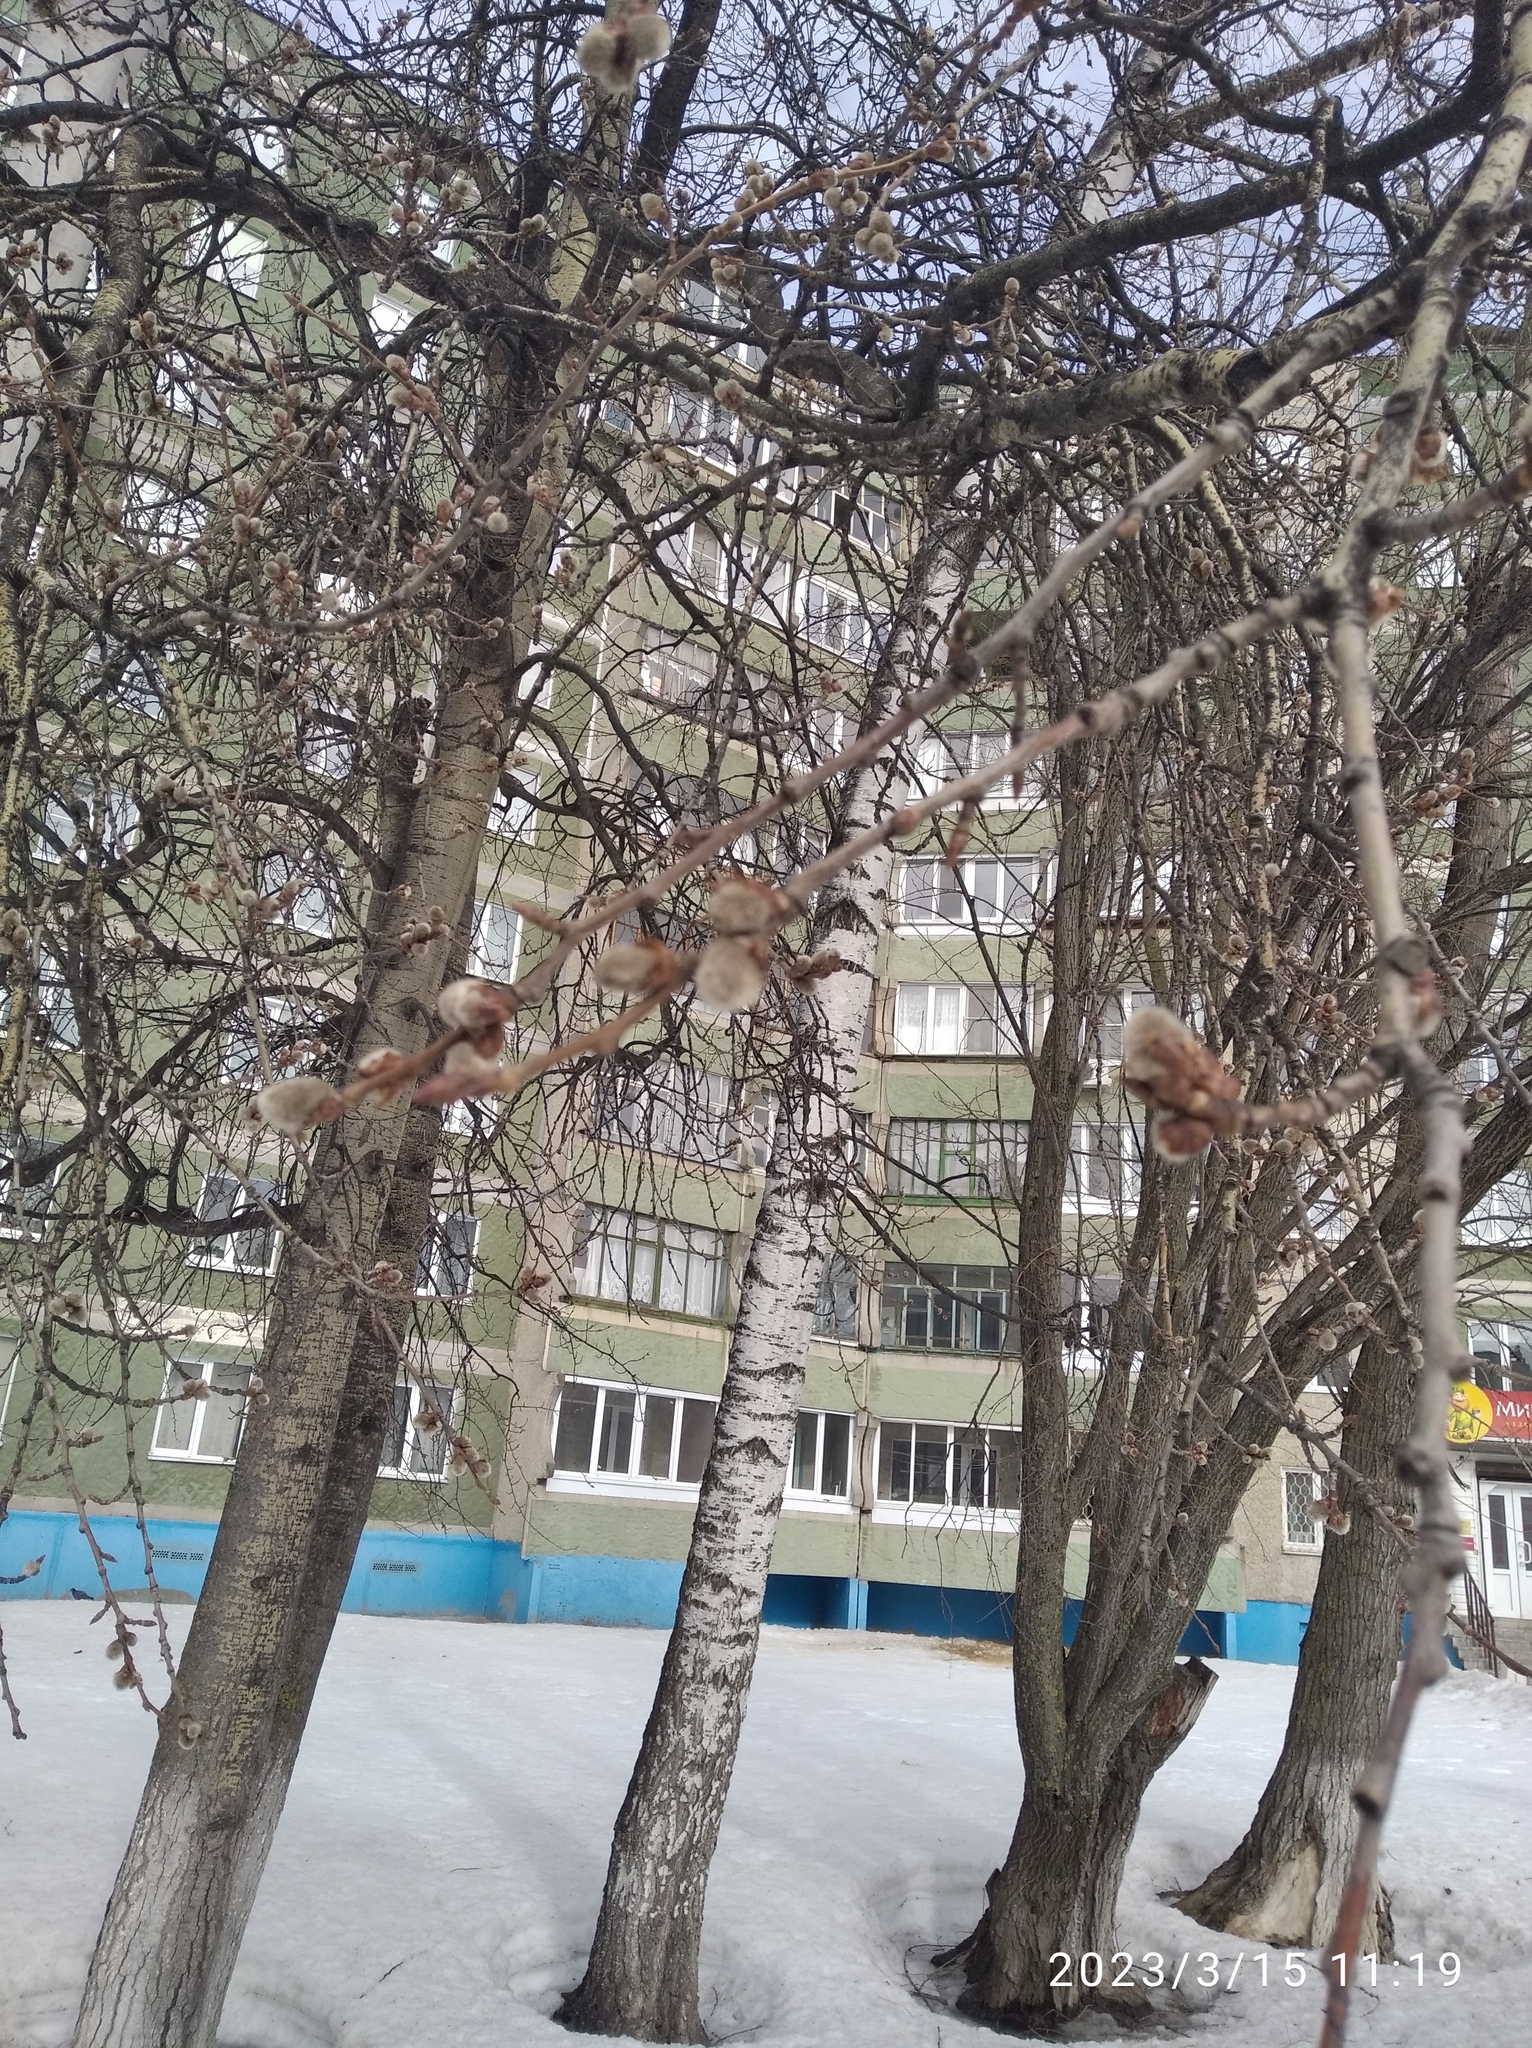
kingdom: Plantae
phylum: Tracheophyta
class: Magnoliopsida
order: Malpighiales
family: Salicaceae
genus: Populus
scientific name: Populus tremula
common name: European aspen
